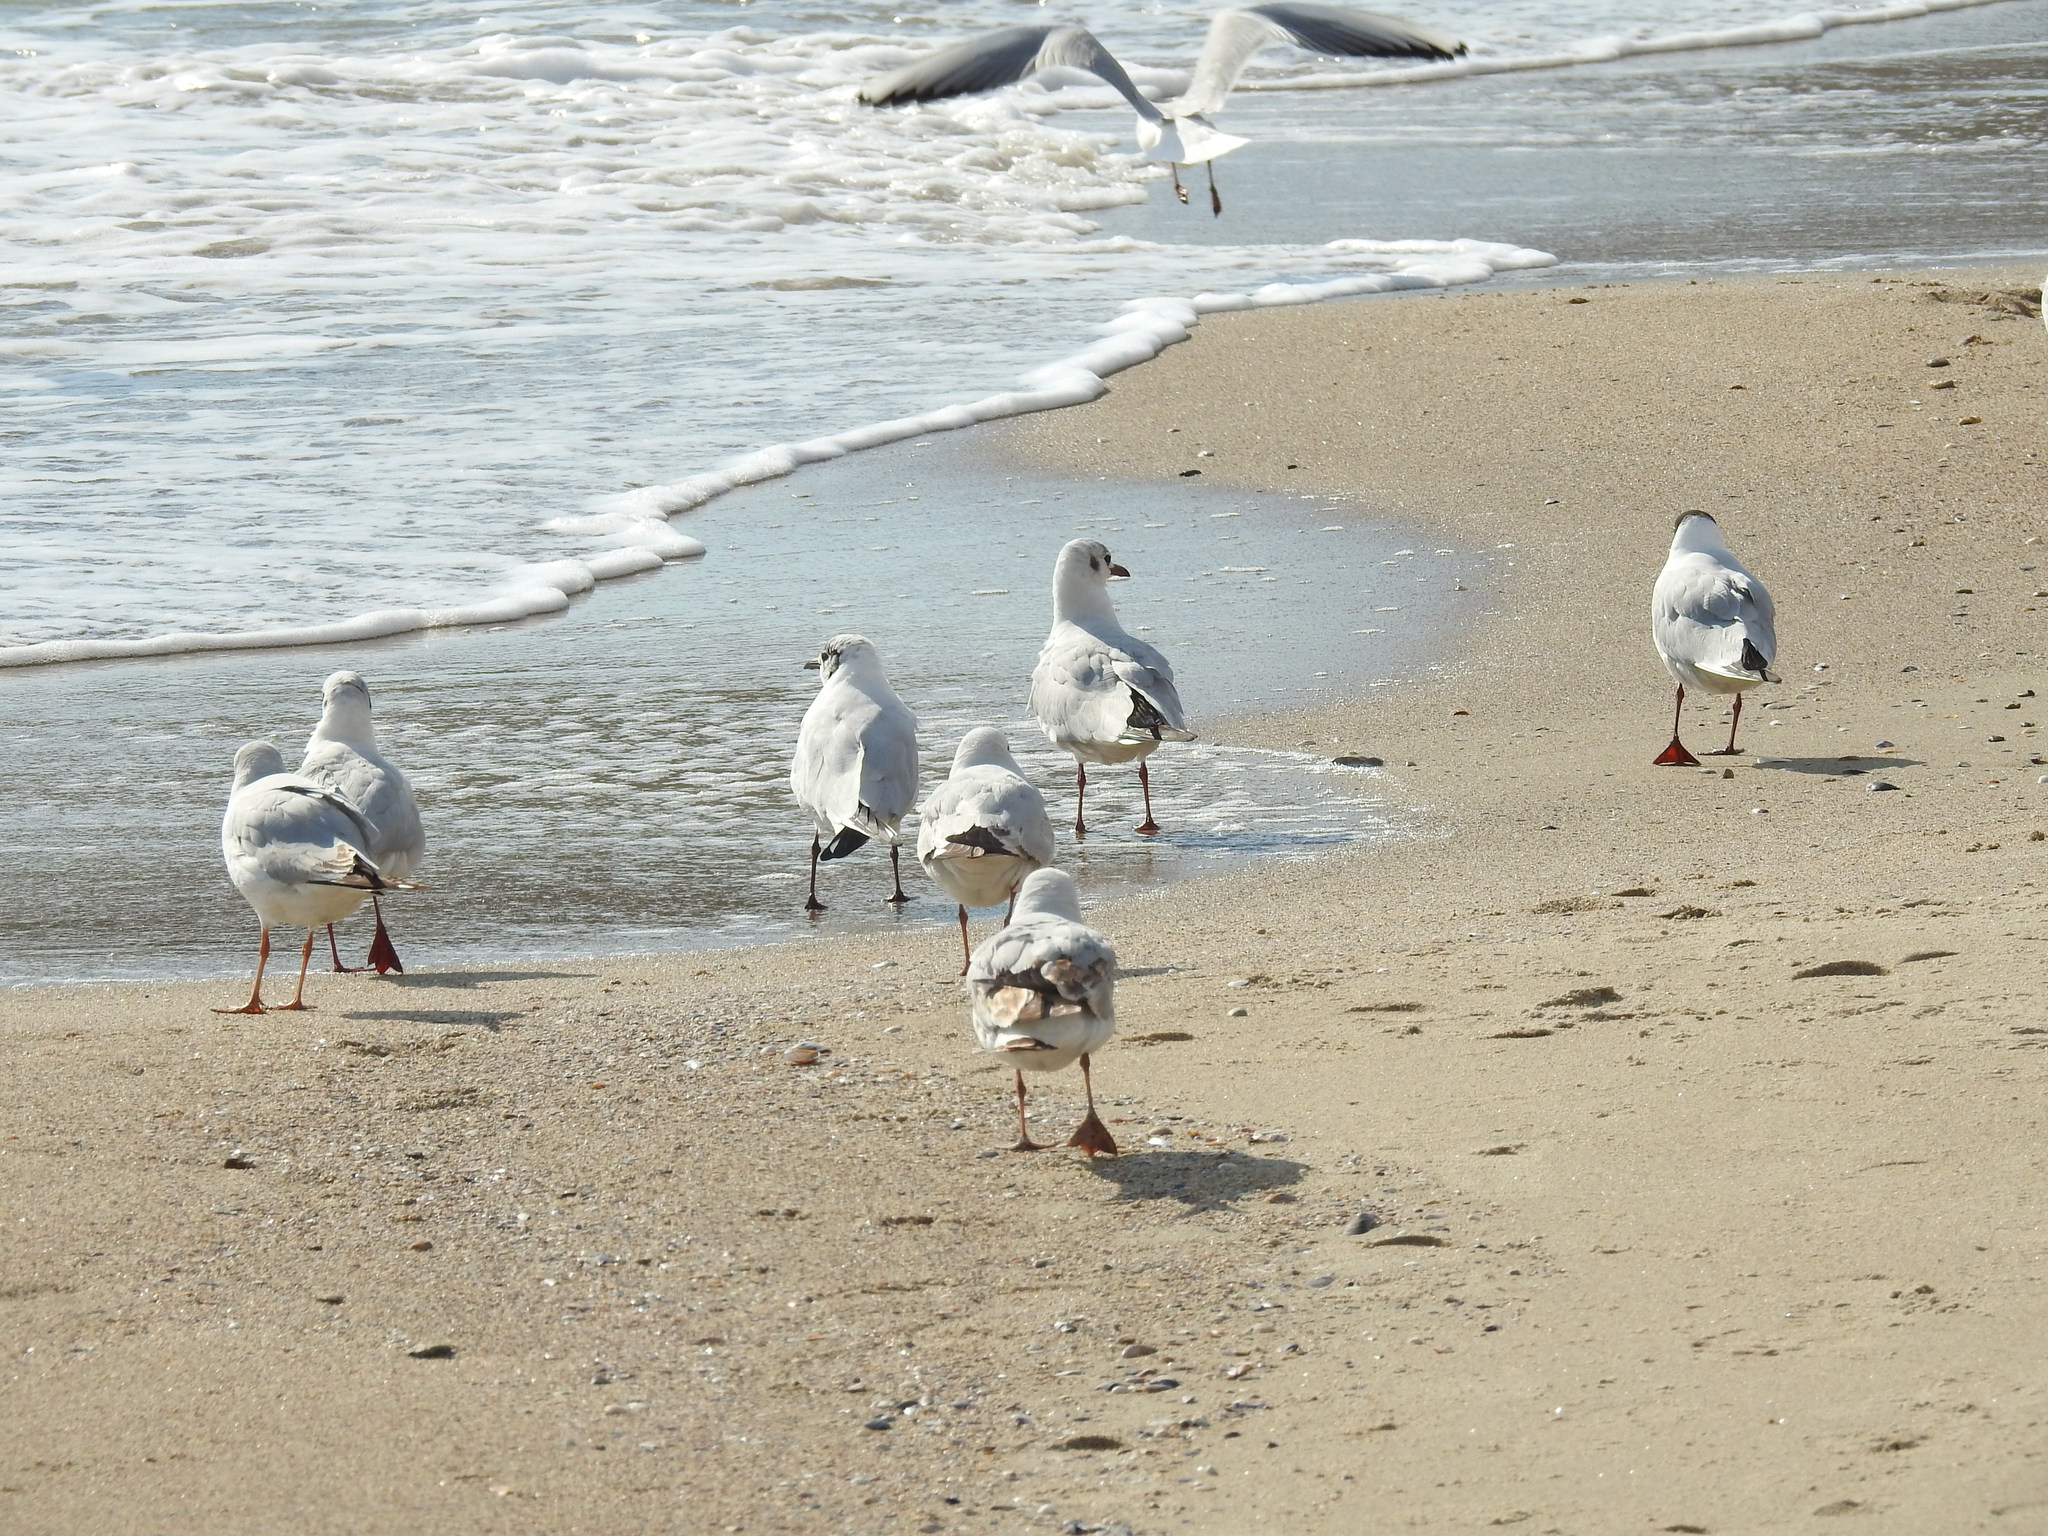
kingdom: Animalia
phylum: Chordata
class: Aves
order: Charadriiformes
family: Laridae
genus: Chroicocephalus
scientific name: Chroicocephalus ridibundus
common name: Black-headed gull
